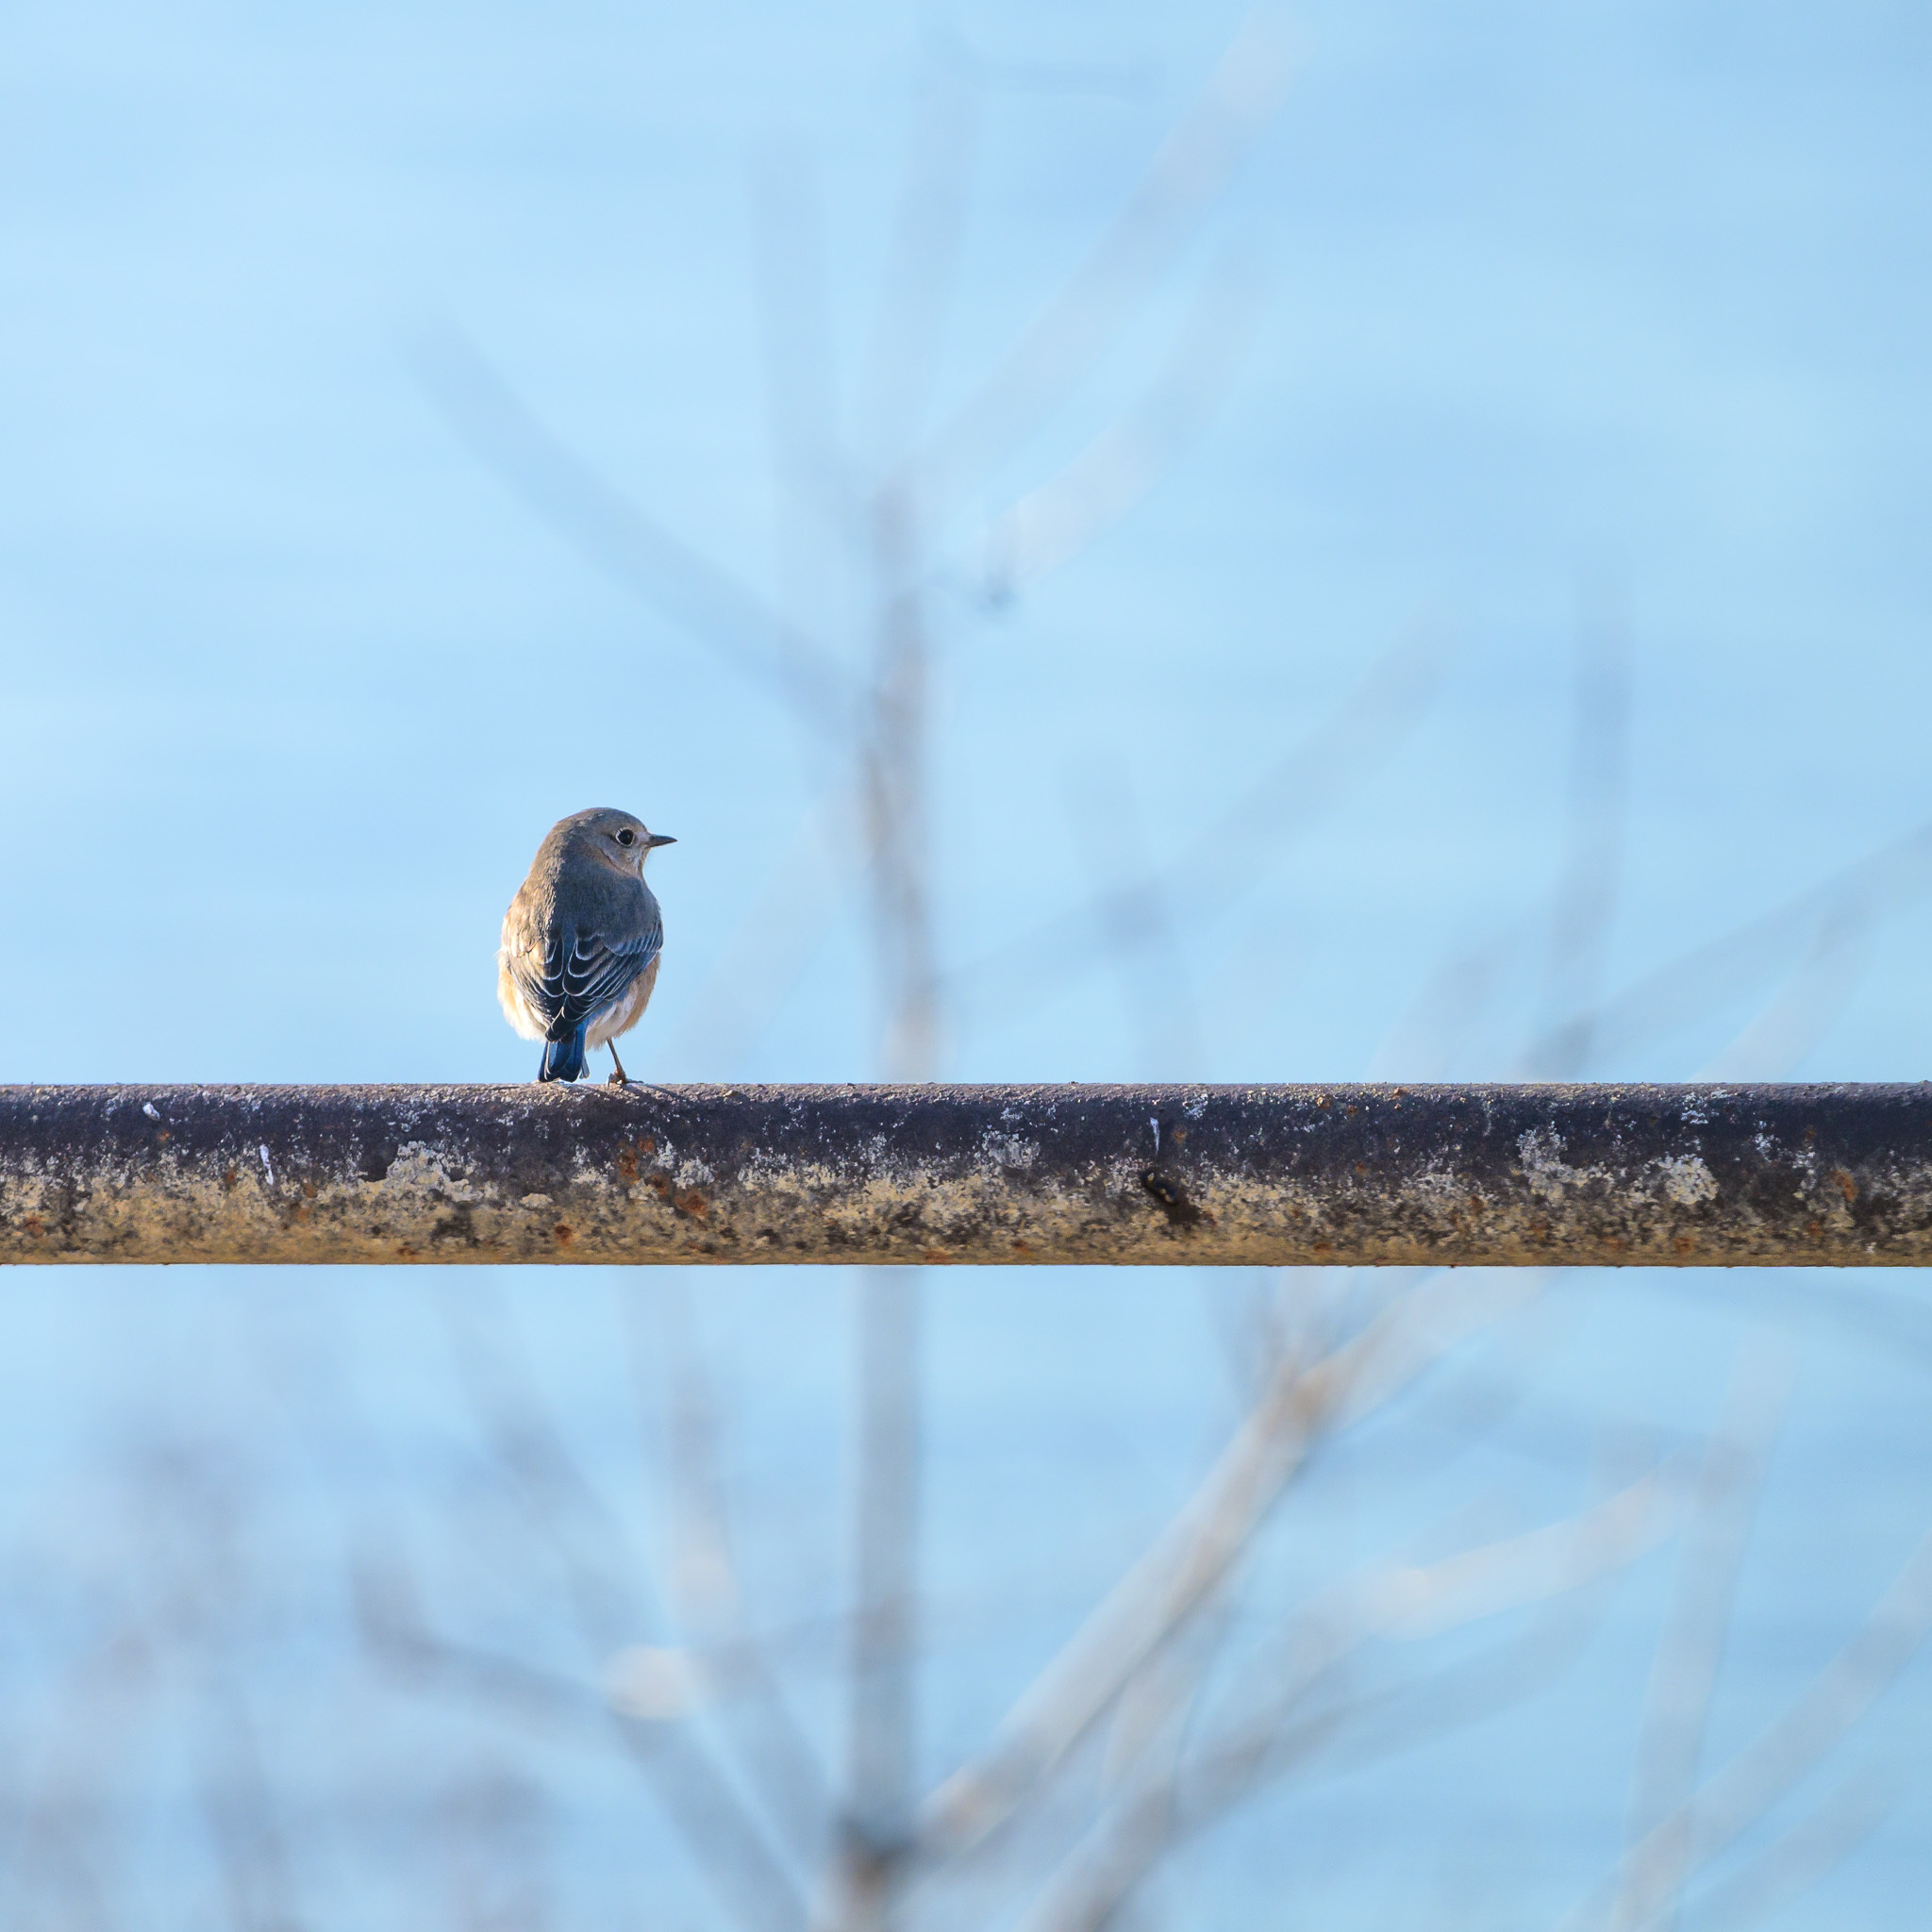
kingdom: Animalia
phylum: Chordata
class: Aves
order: Passeriformes
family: Turdidae
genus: Sialia
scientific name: Sialia sialis
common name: Eastern bluebird
